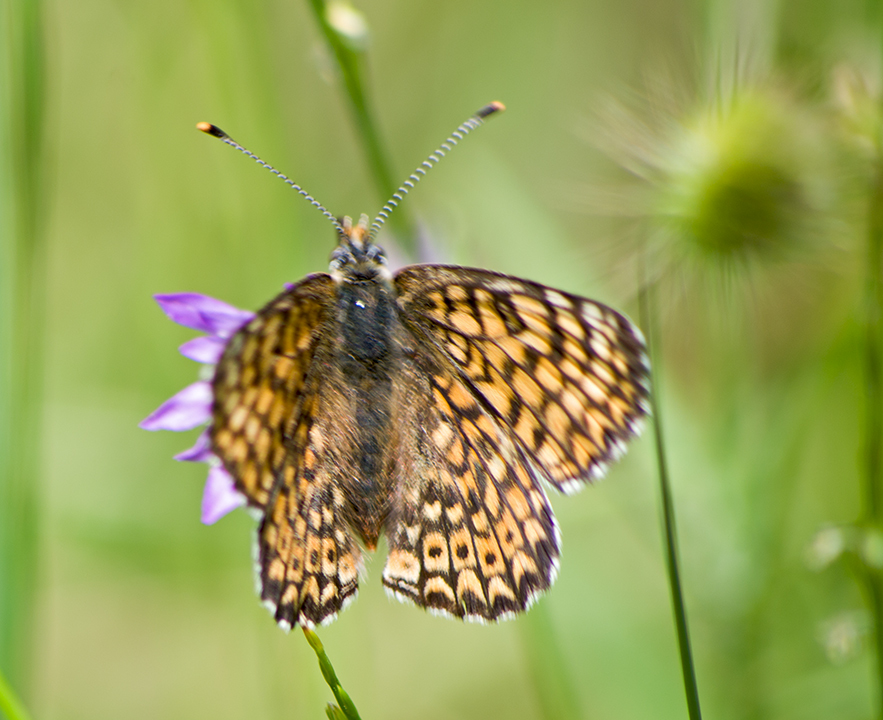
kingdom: Animalia
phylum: Arthropoda
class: Insecta
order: Lepidoptera
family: Nymphalidae
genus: Melitaea
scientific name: Melitaea cinxia
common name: Glanville fritillary
